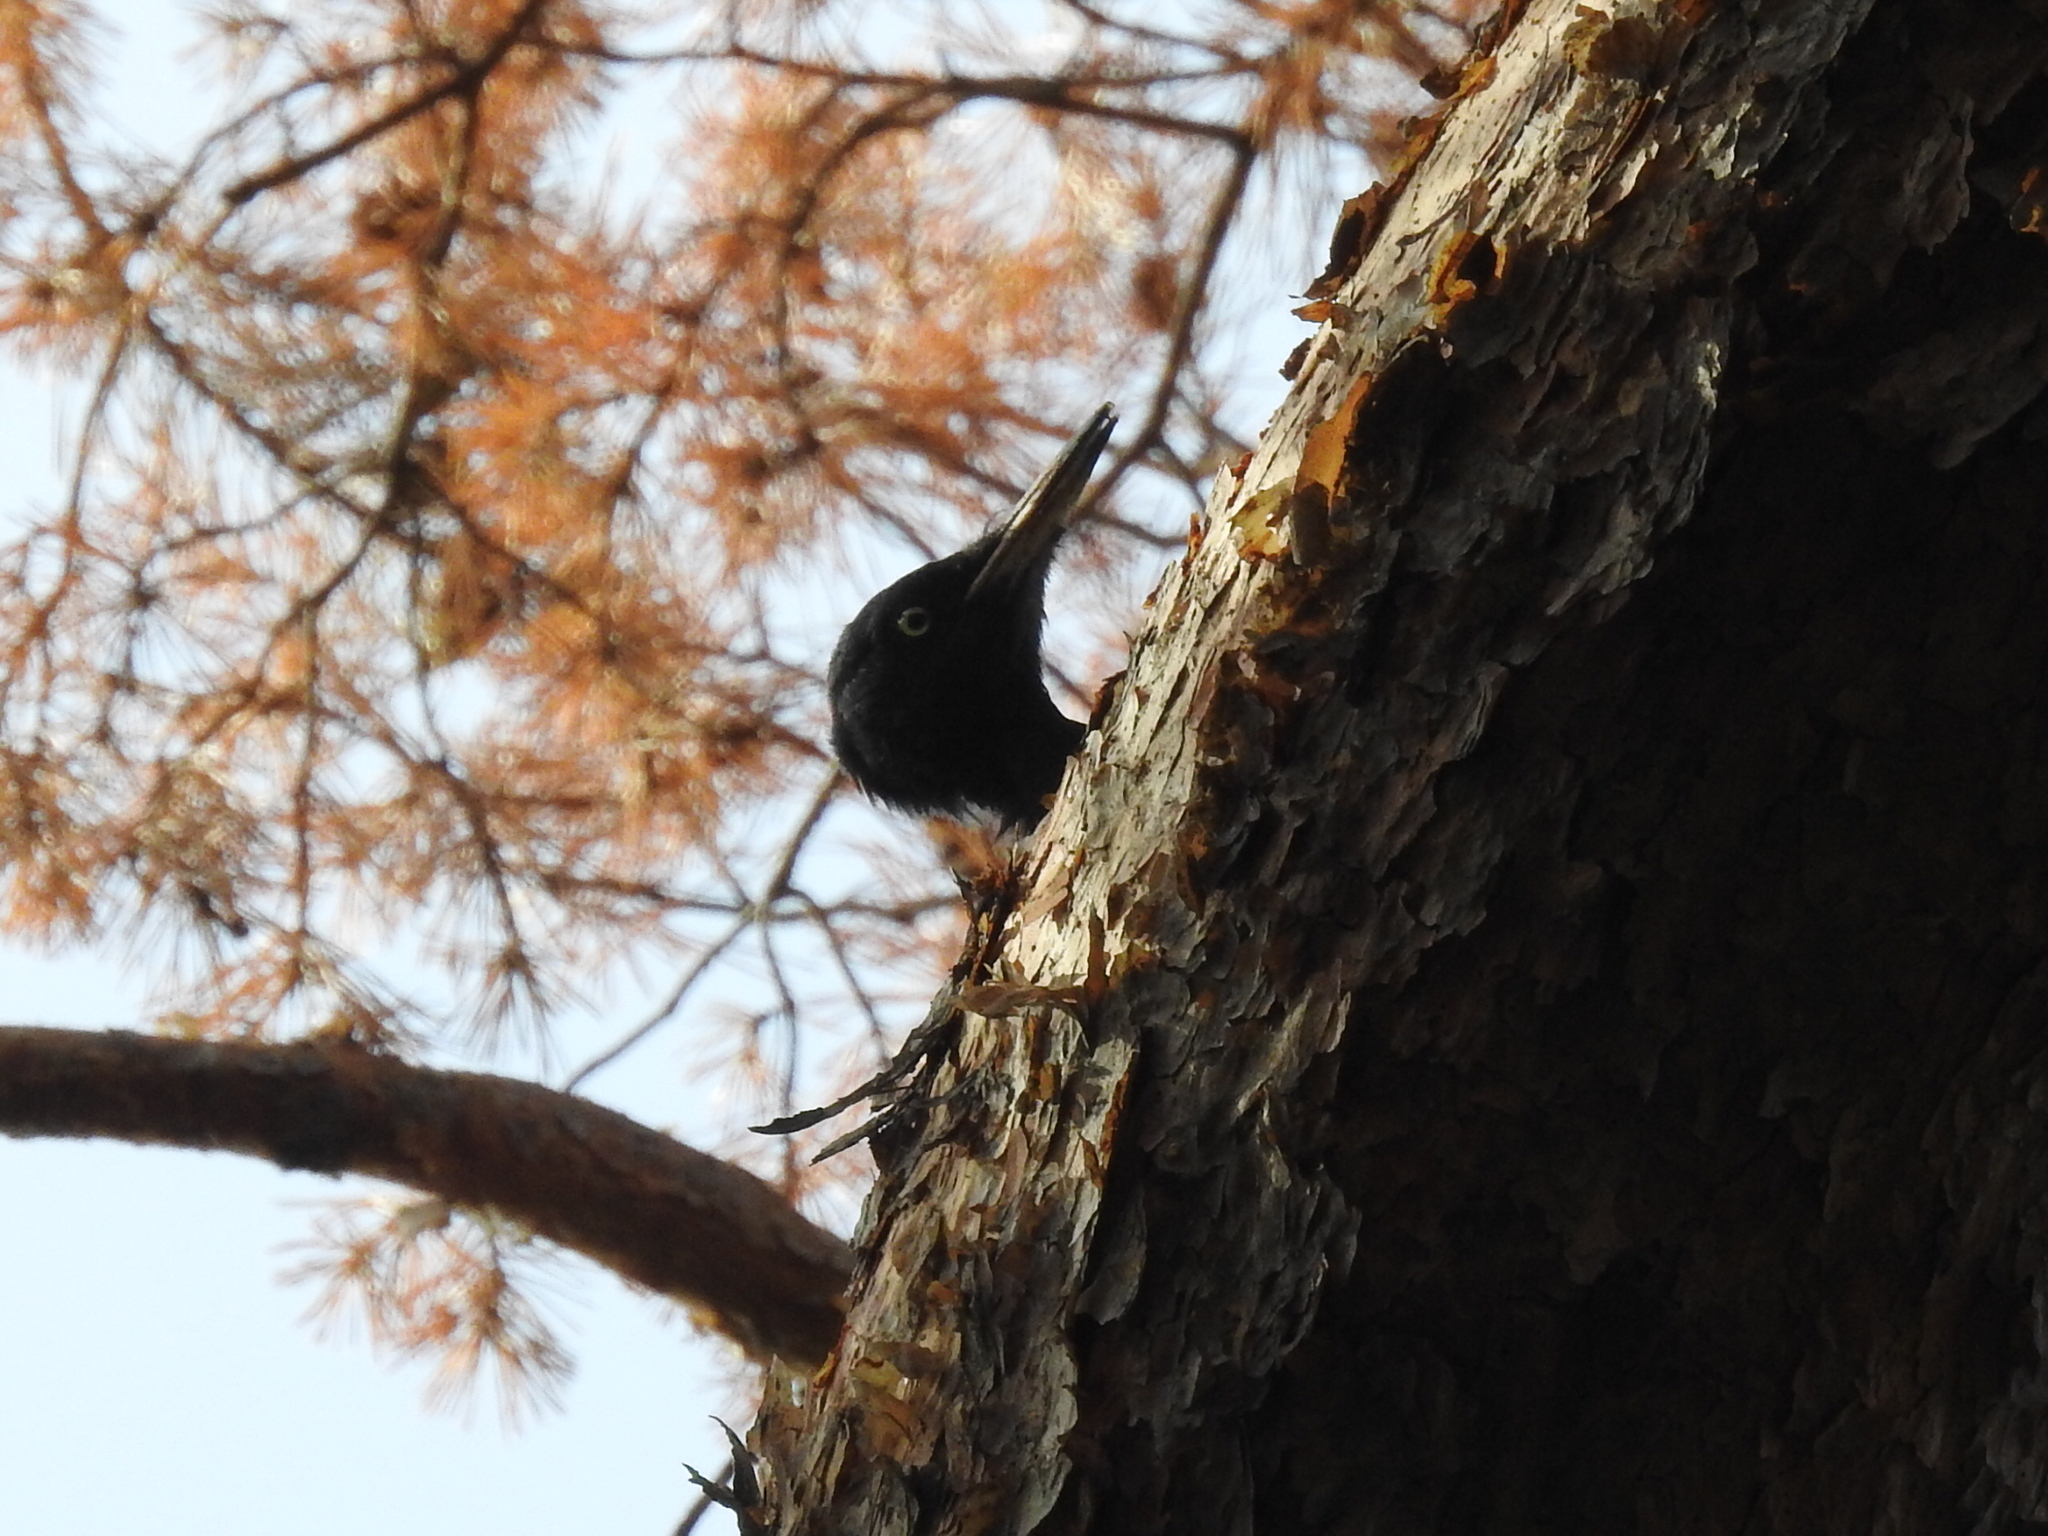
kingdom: Animalia
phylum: Chordata
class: Aves
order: Piciformes
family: Picidae
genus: Dryocopus
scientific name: Dryocopus martius
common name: Black woodpecker
